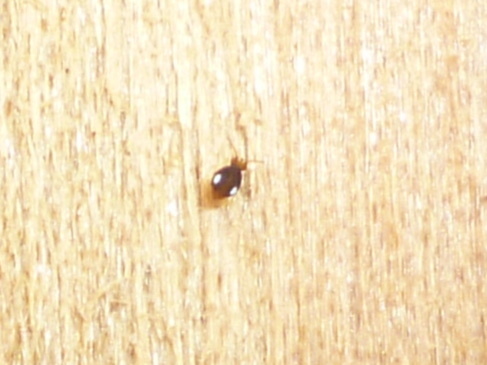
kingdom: Animalia
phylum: Arthropoda
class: Collembola
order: Symphypleona
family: Katiannidae
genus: Sminthurinus
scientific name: Sminthurinus quadrimaculatus
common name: Globular springtail
